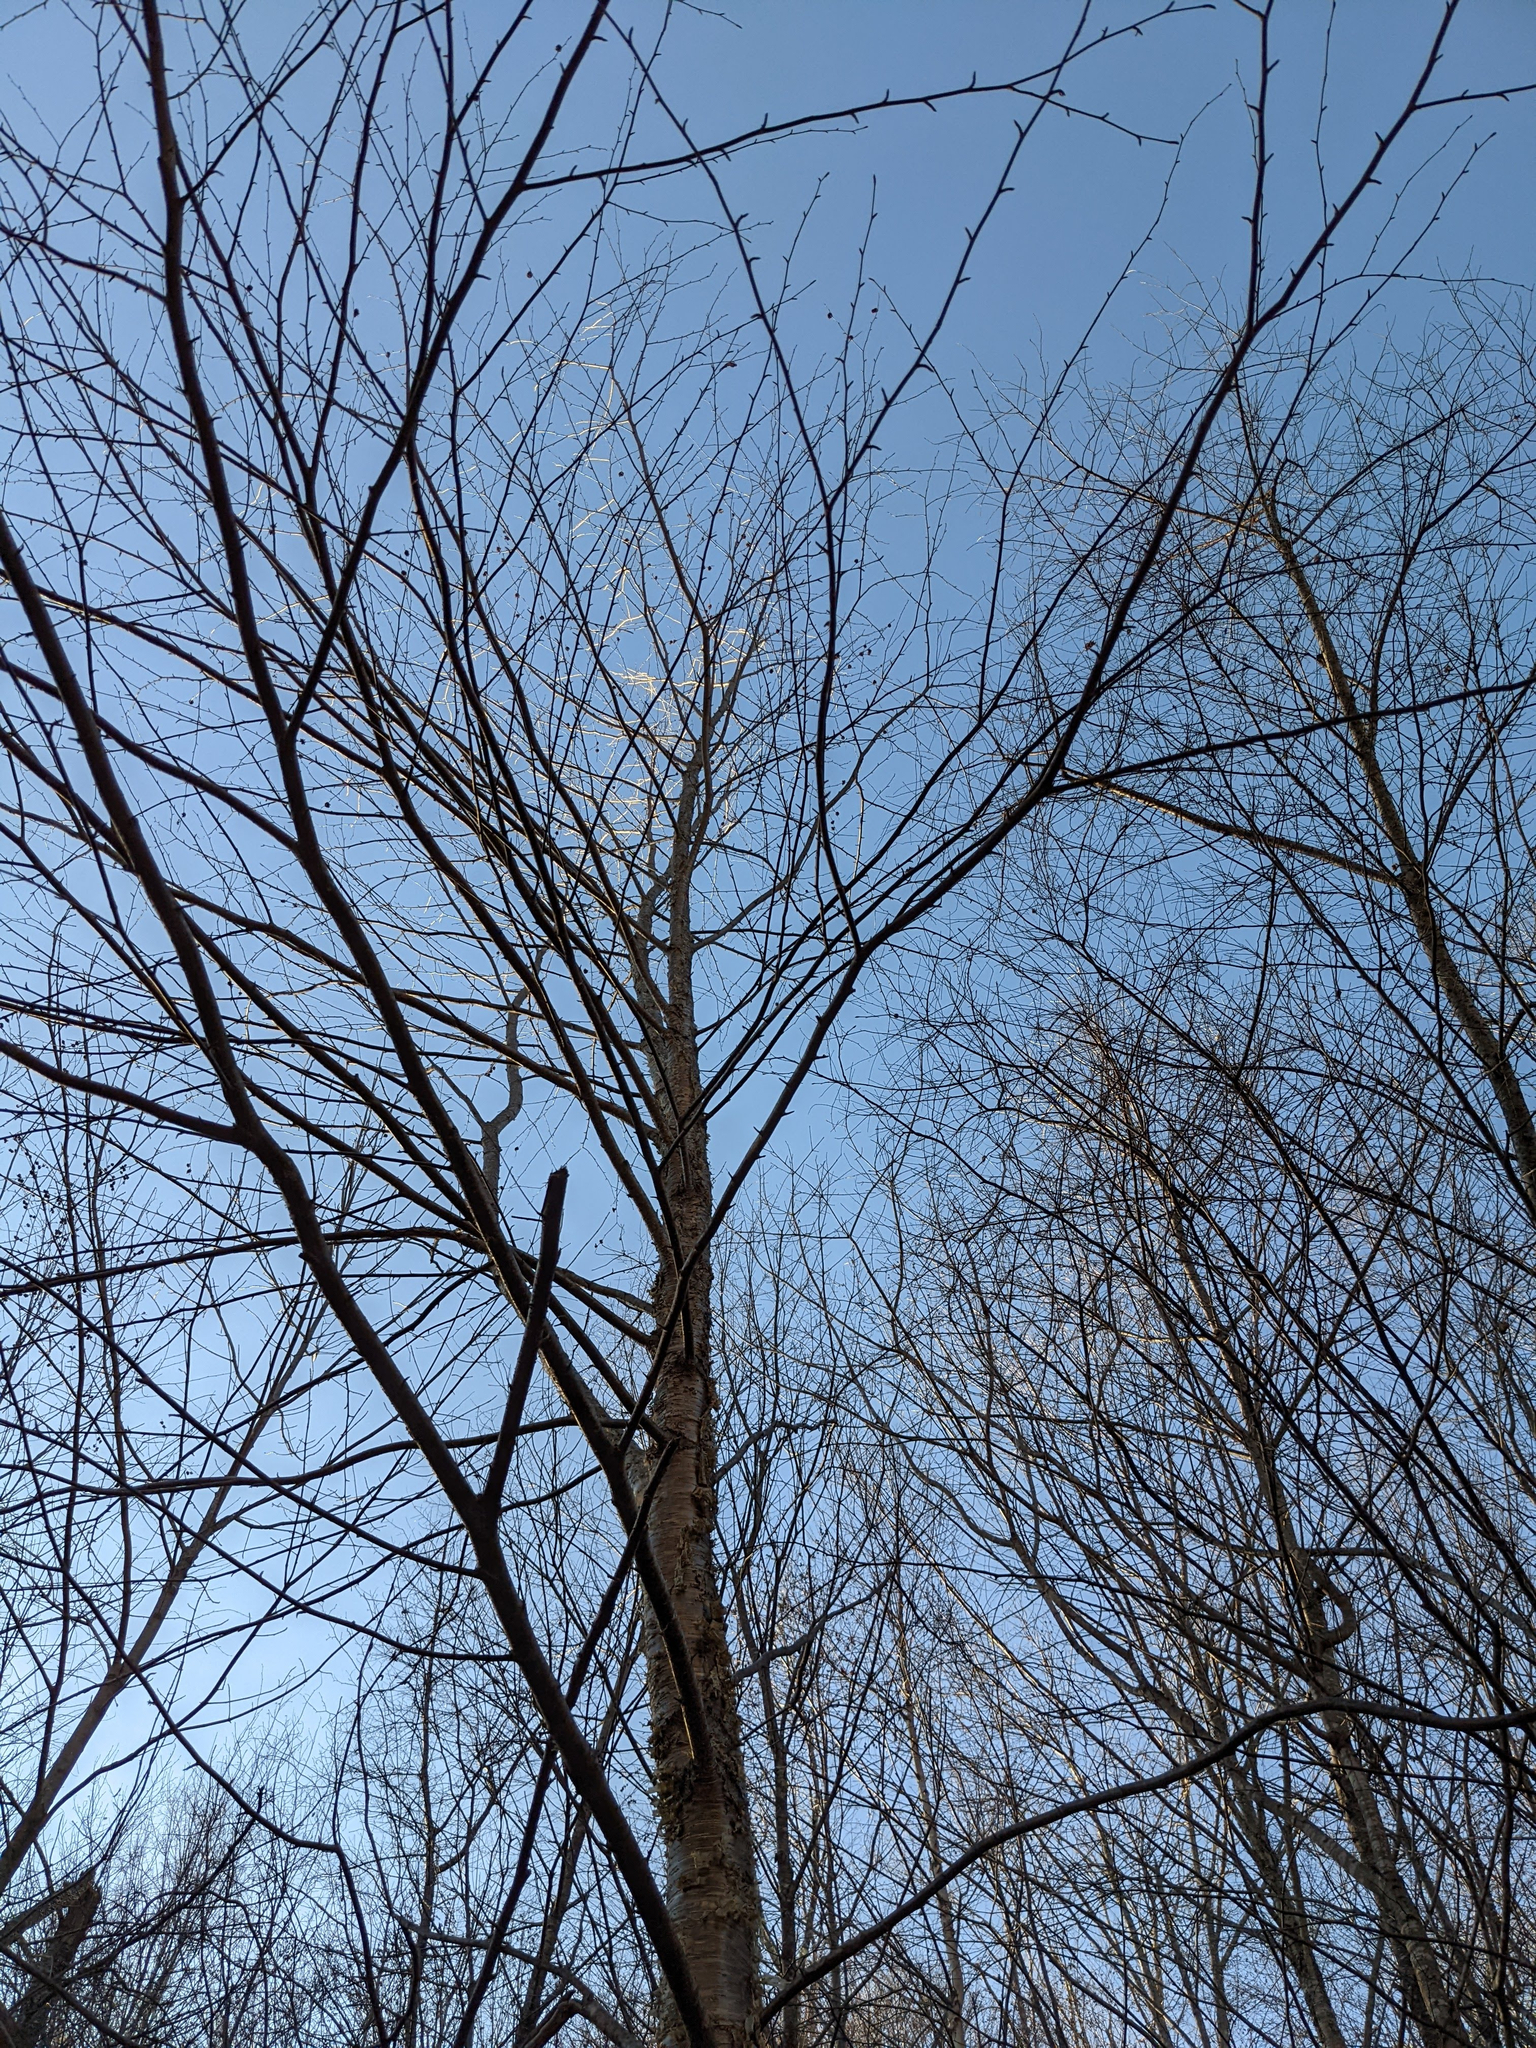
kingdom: Plantae
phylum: Tracheophyta
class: Magnoliopsida
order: Fagales
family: Betulaceae
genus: Betula
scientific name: Betula alleghaniensis
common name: Yellow birch
